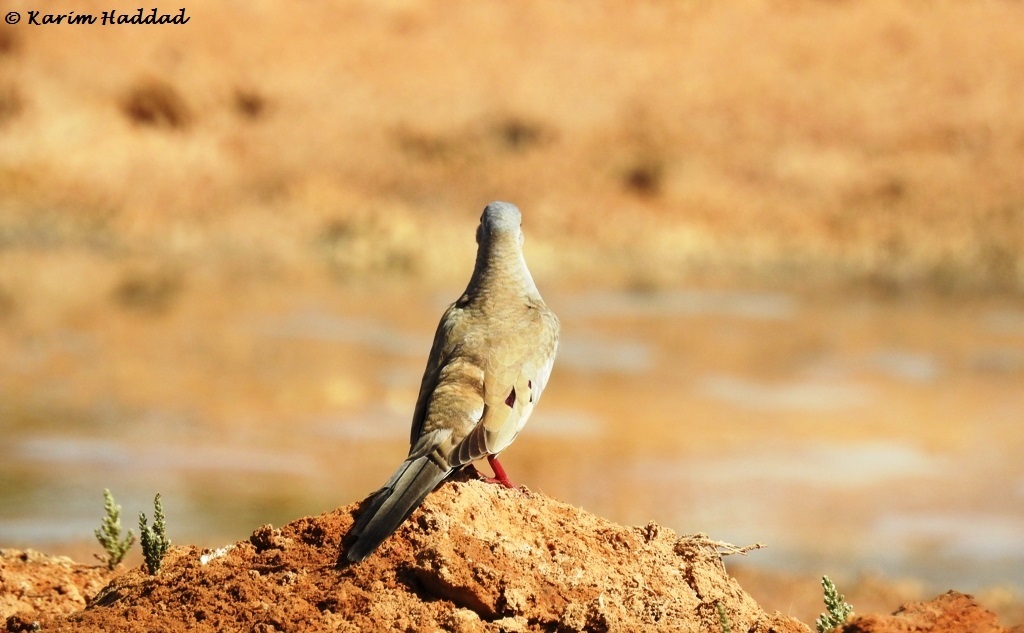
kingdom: Animalia
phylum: Chordata
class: Aves
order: Columbiformes
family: Columbidae
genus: Oena
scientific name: Oena capensis
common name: Namaqua dove
